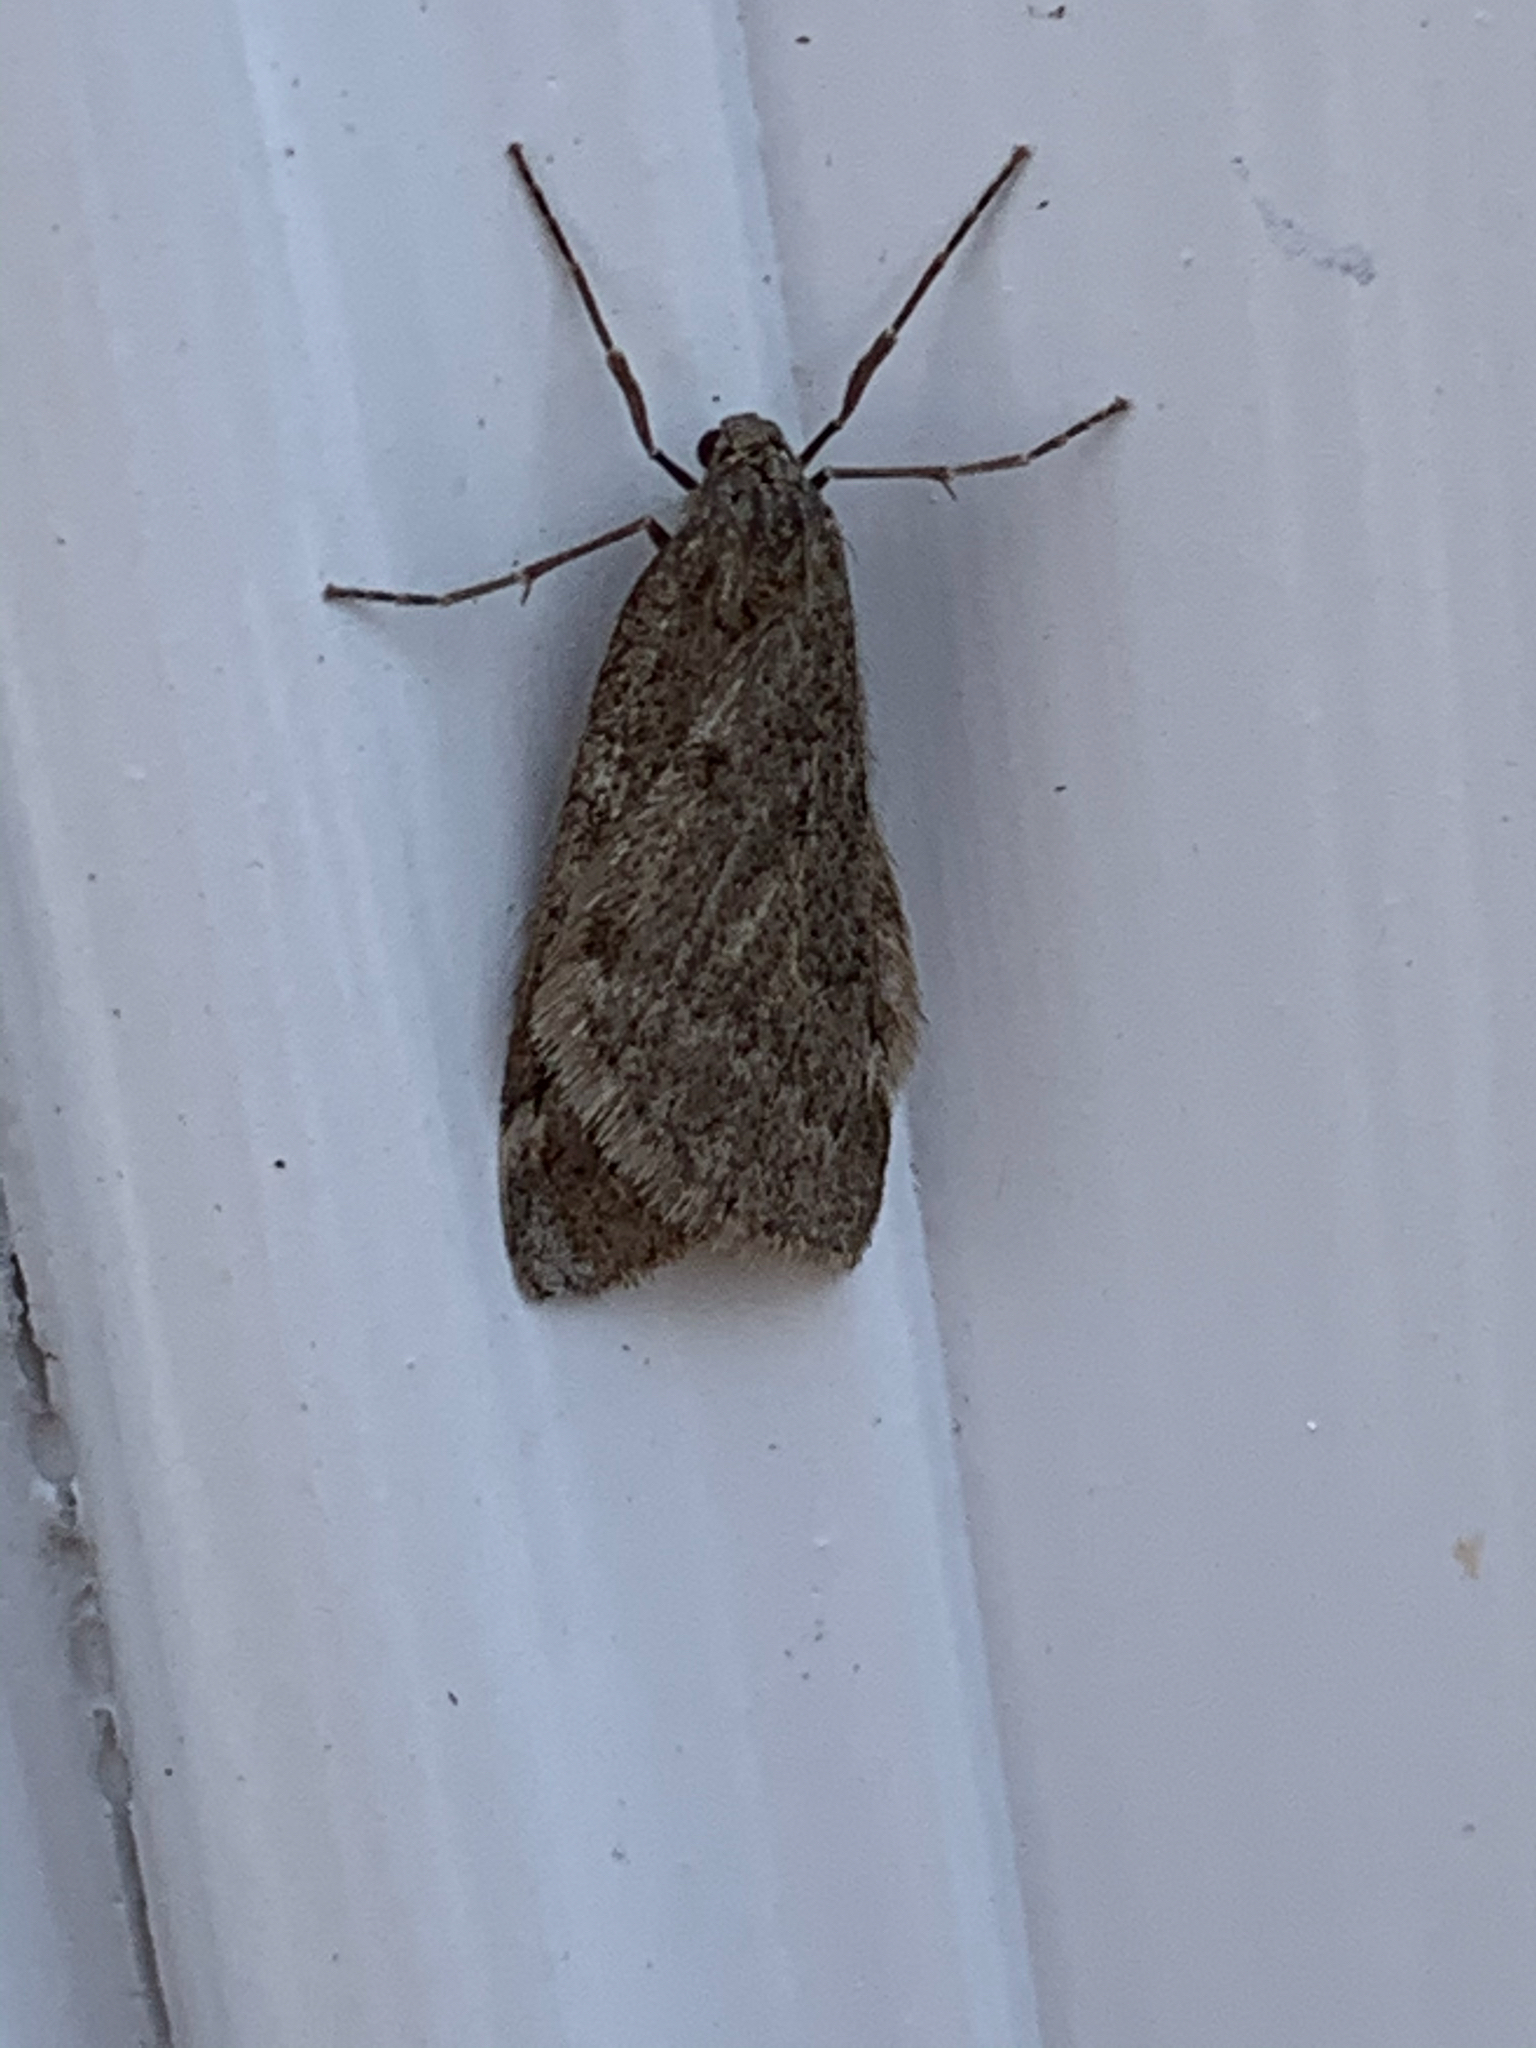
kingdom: Animalia
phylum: Arthropoda
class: Insecta
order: Lepidoptera
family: Geometridae
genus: Alsophila
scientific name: Alsophila pometaria
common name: Fall cankerworm
